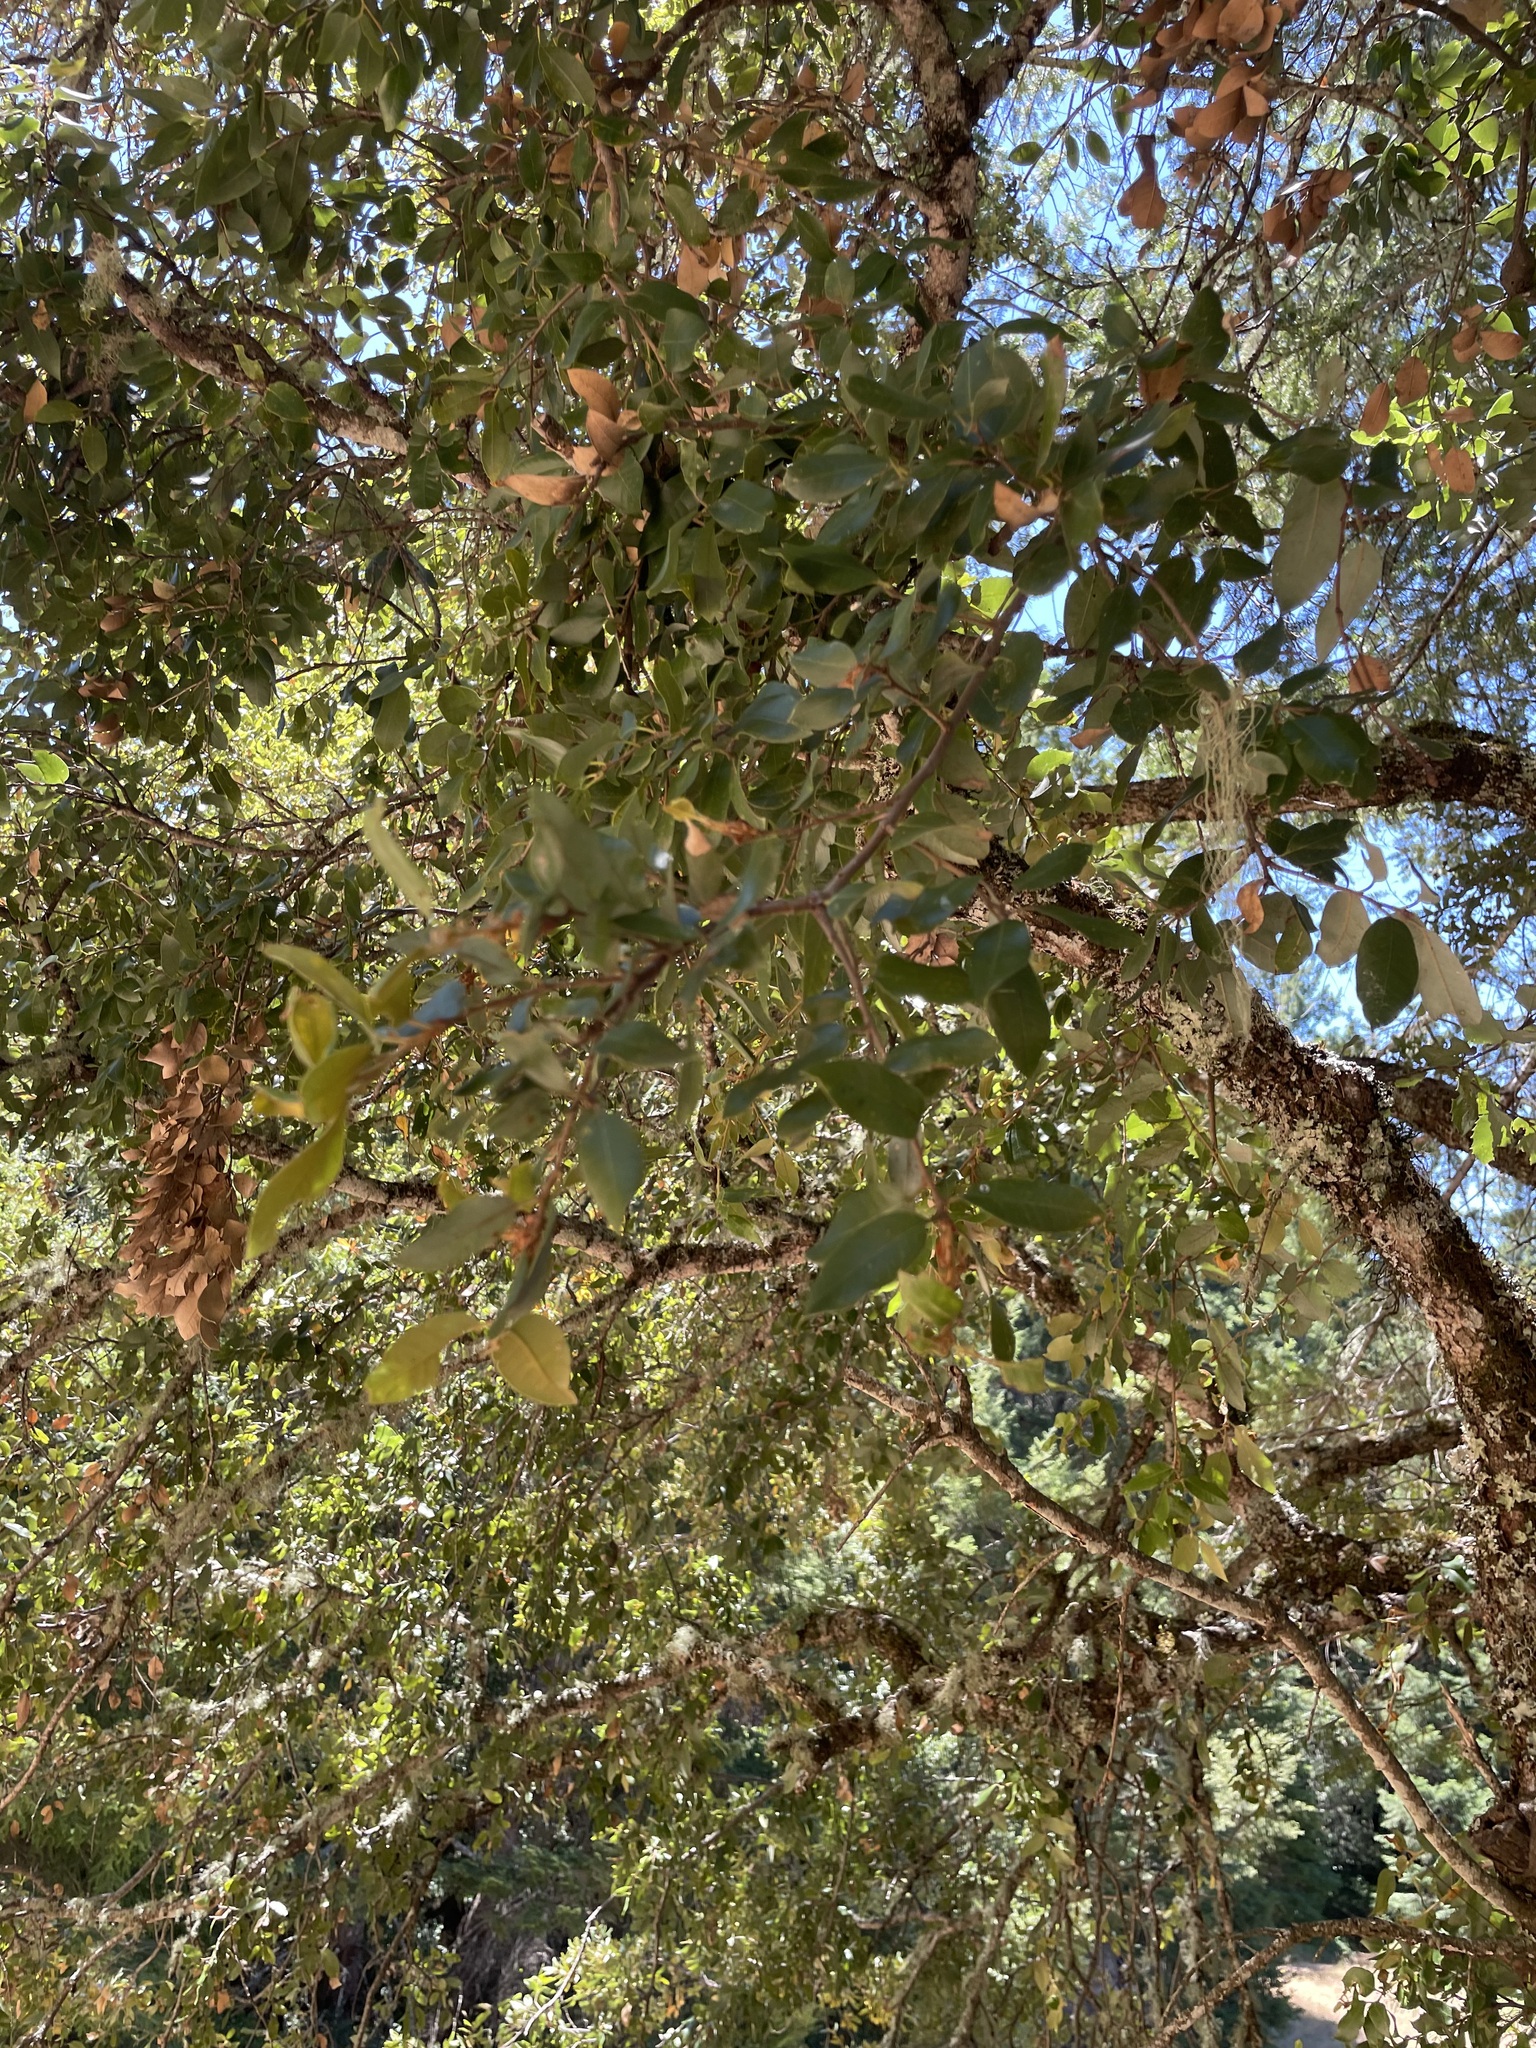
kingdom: Animalia
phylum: Arthropoda
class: Insecta
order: Hymenoptera
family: Cynipidae
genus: Heteroecus
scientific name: Heteroecus
